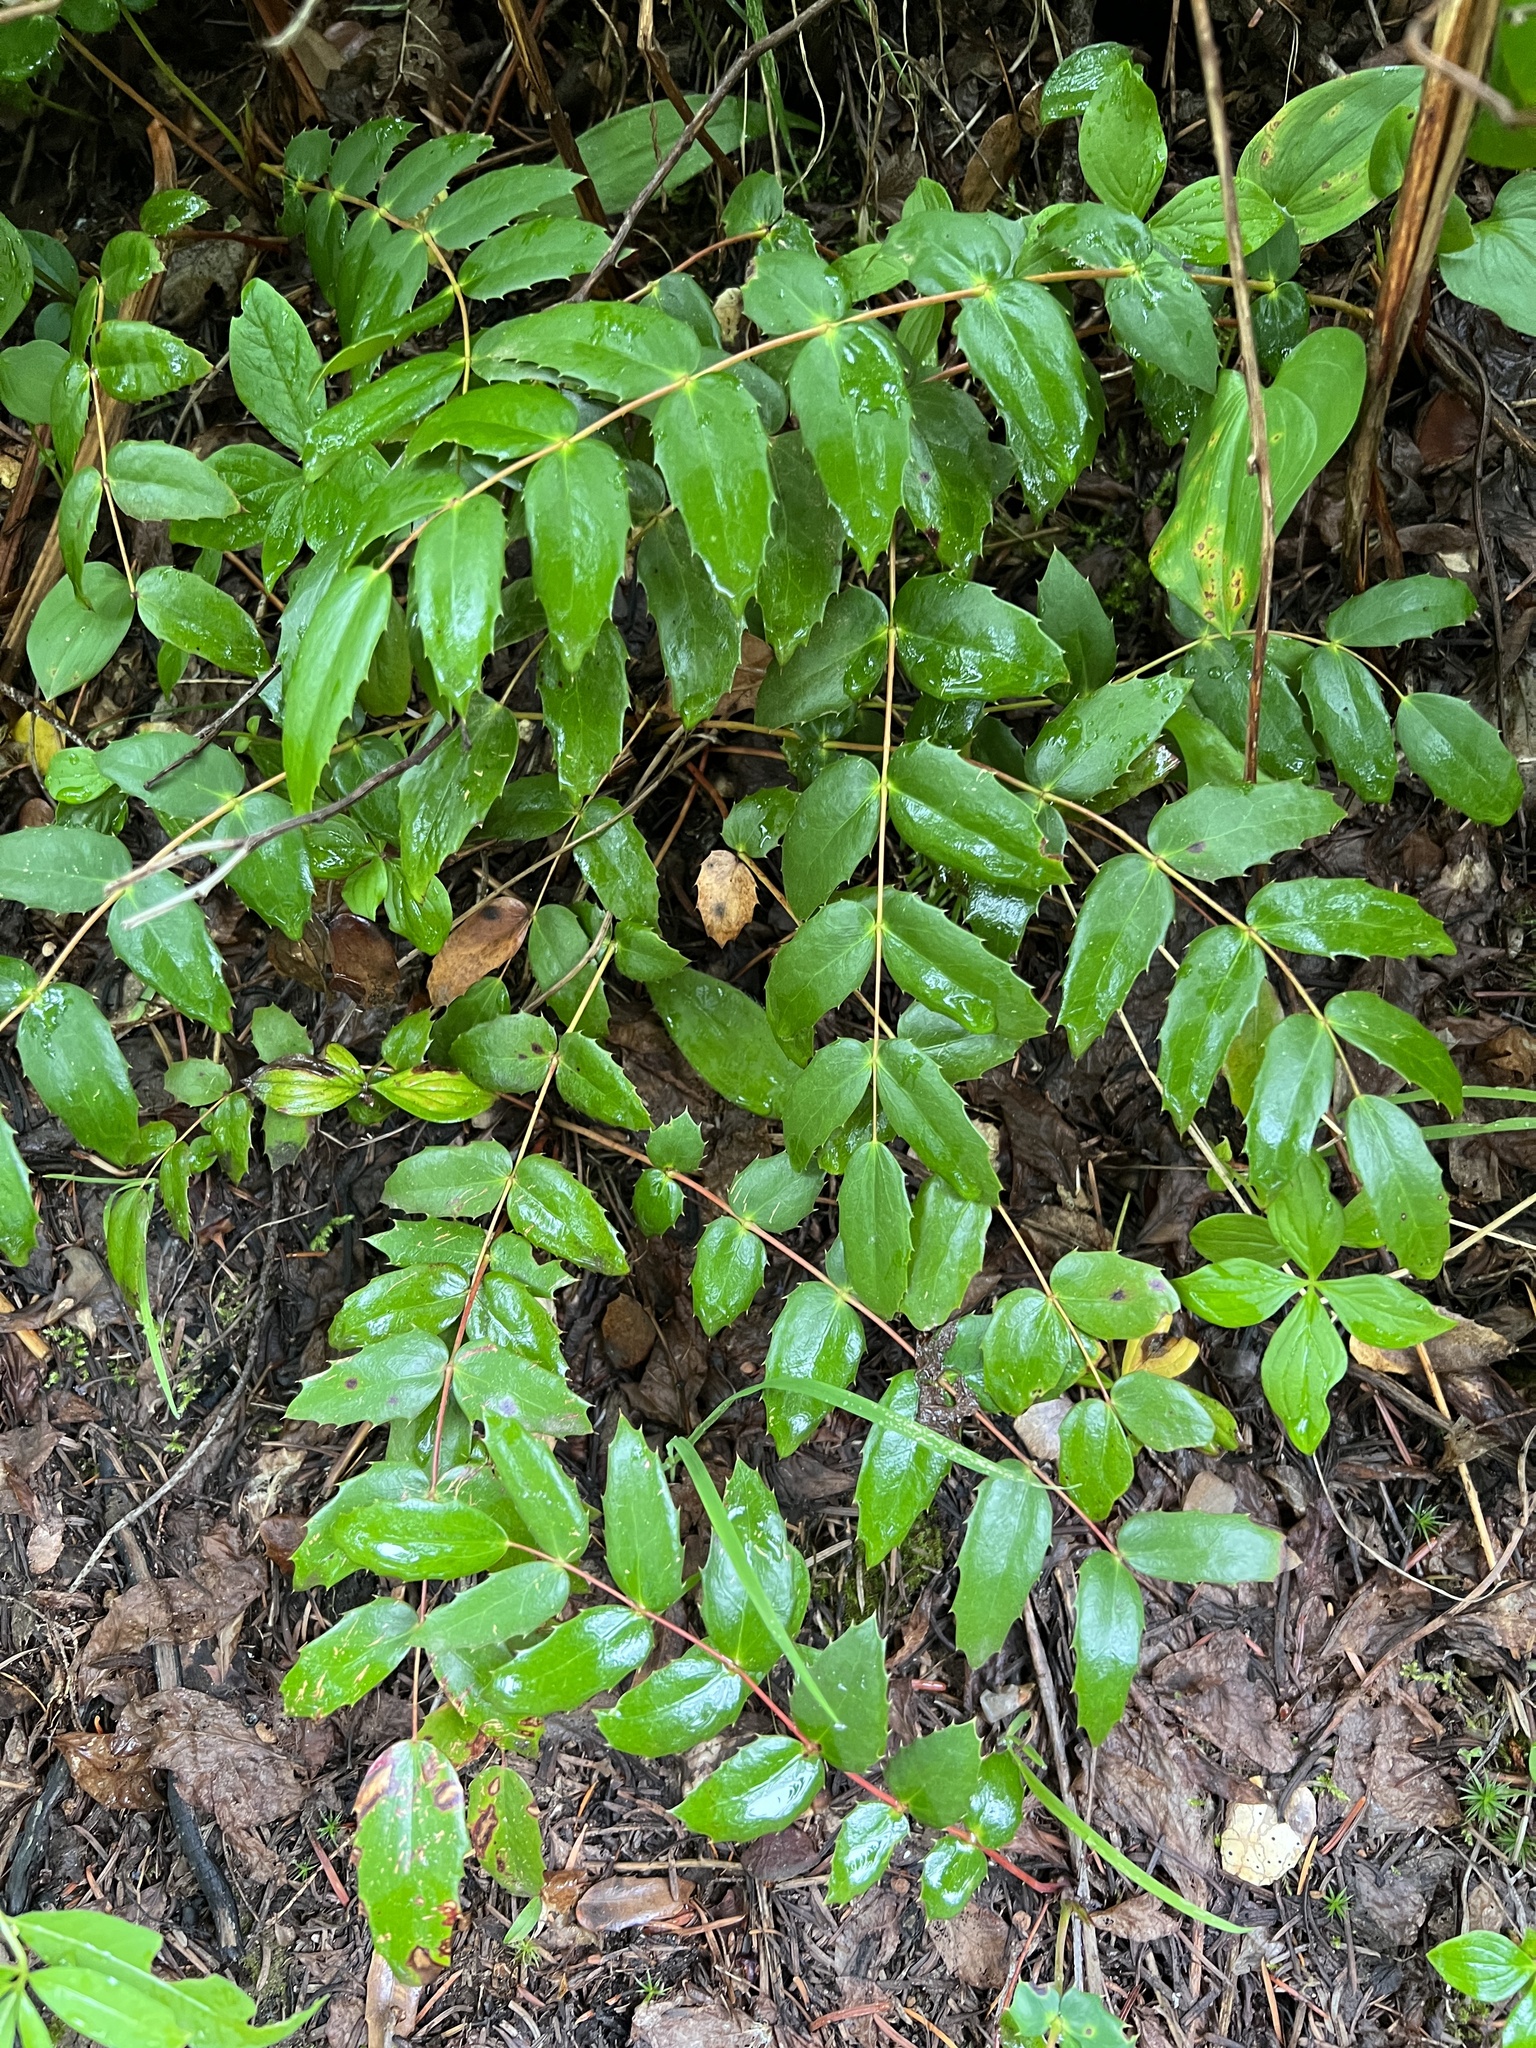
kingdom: Plantae
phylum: Tracheophyta
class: Magnoliopsida
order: Ranunculales
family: Berberidaceae
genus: Mahonia
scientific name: Mahonia nervosa
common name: Cascade oregon-grape
